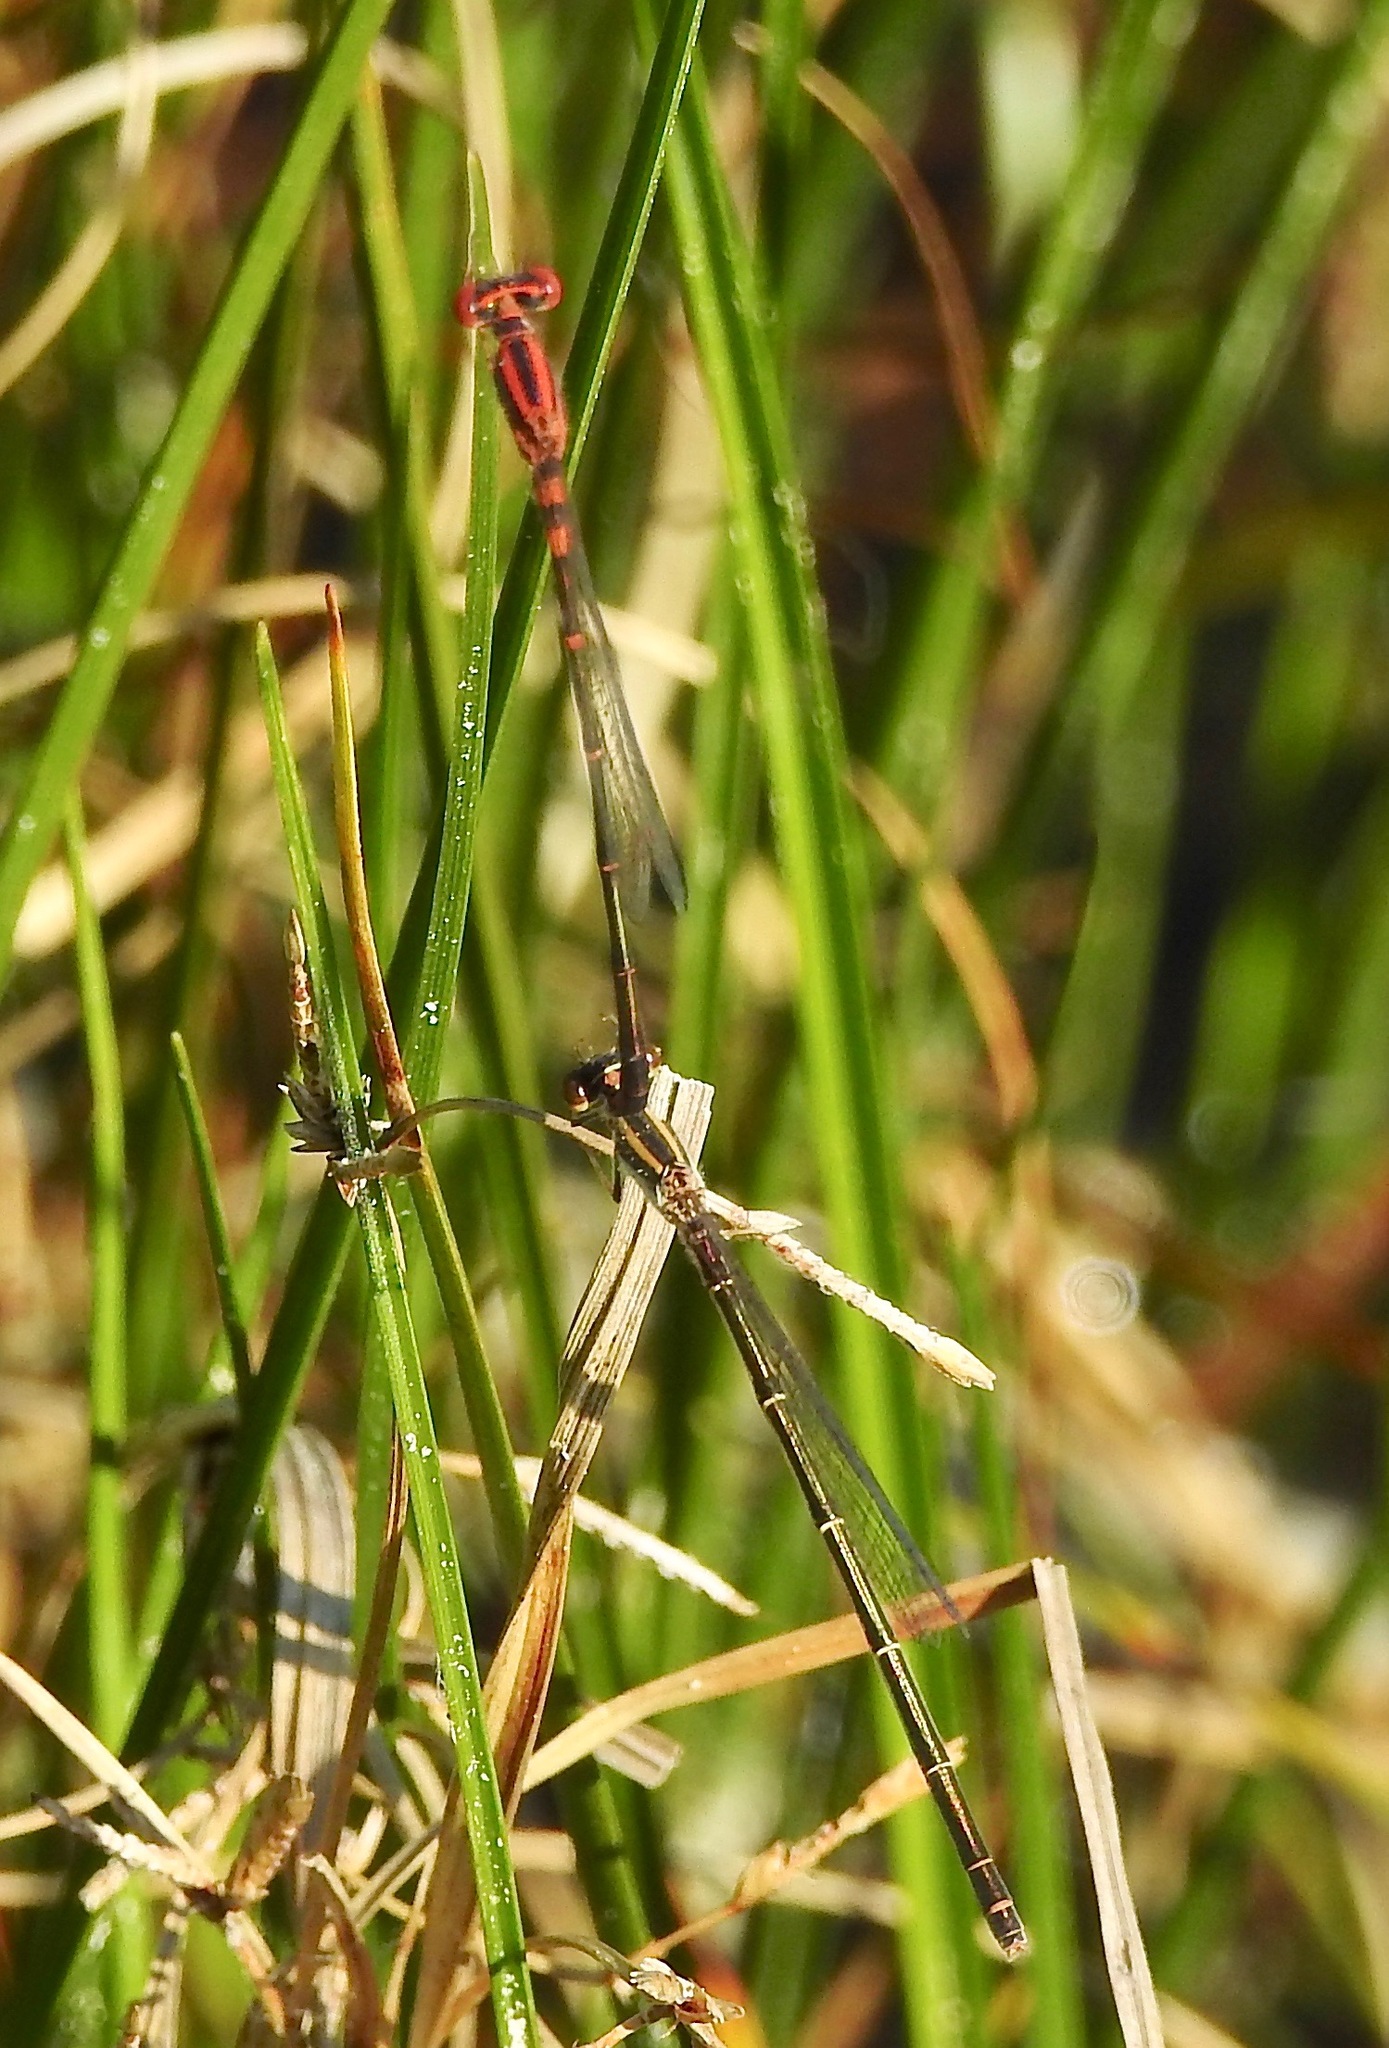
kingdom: Animalia
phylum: Arthropoda
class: Insecta
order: Odonata
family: Coenagrionidae
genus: Enallagma
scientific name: Enallagma concisum
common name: Cherry bluet
